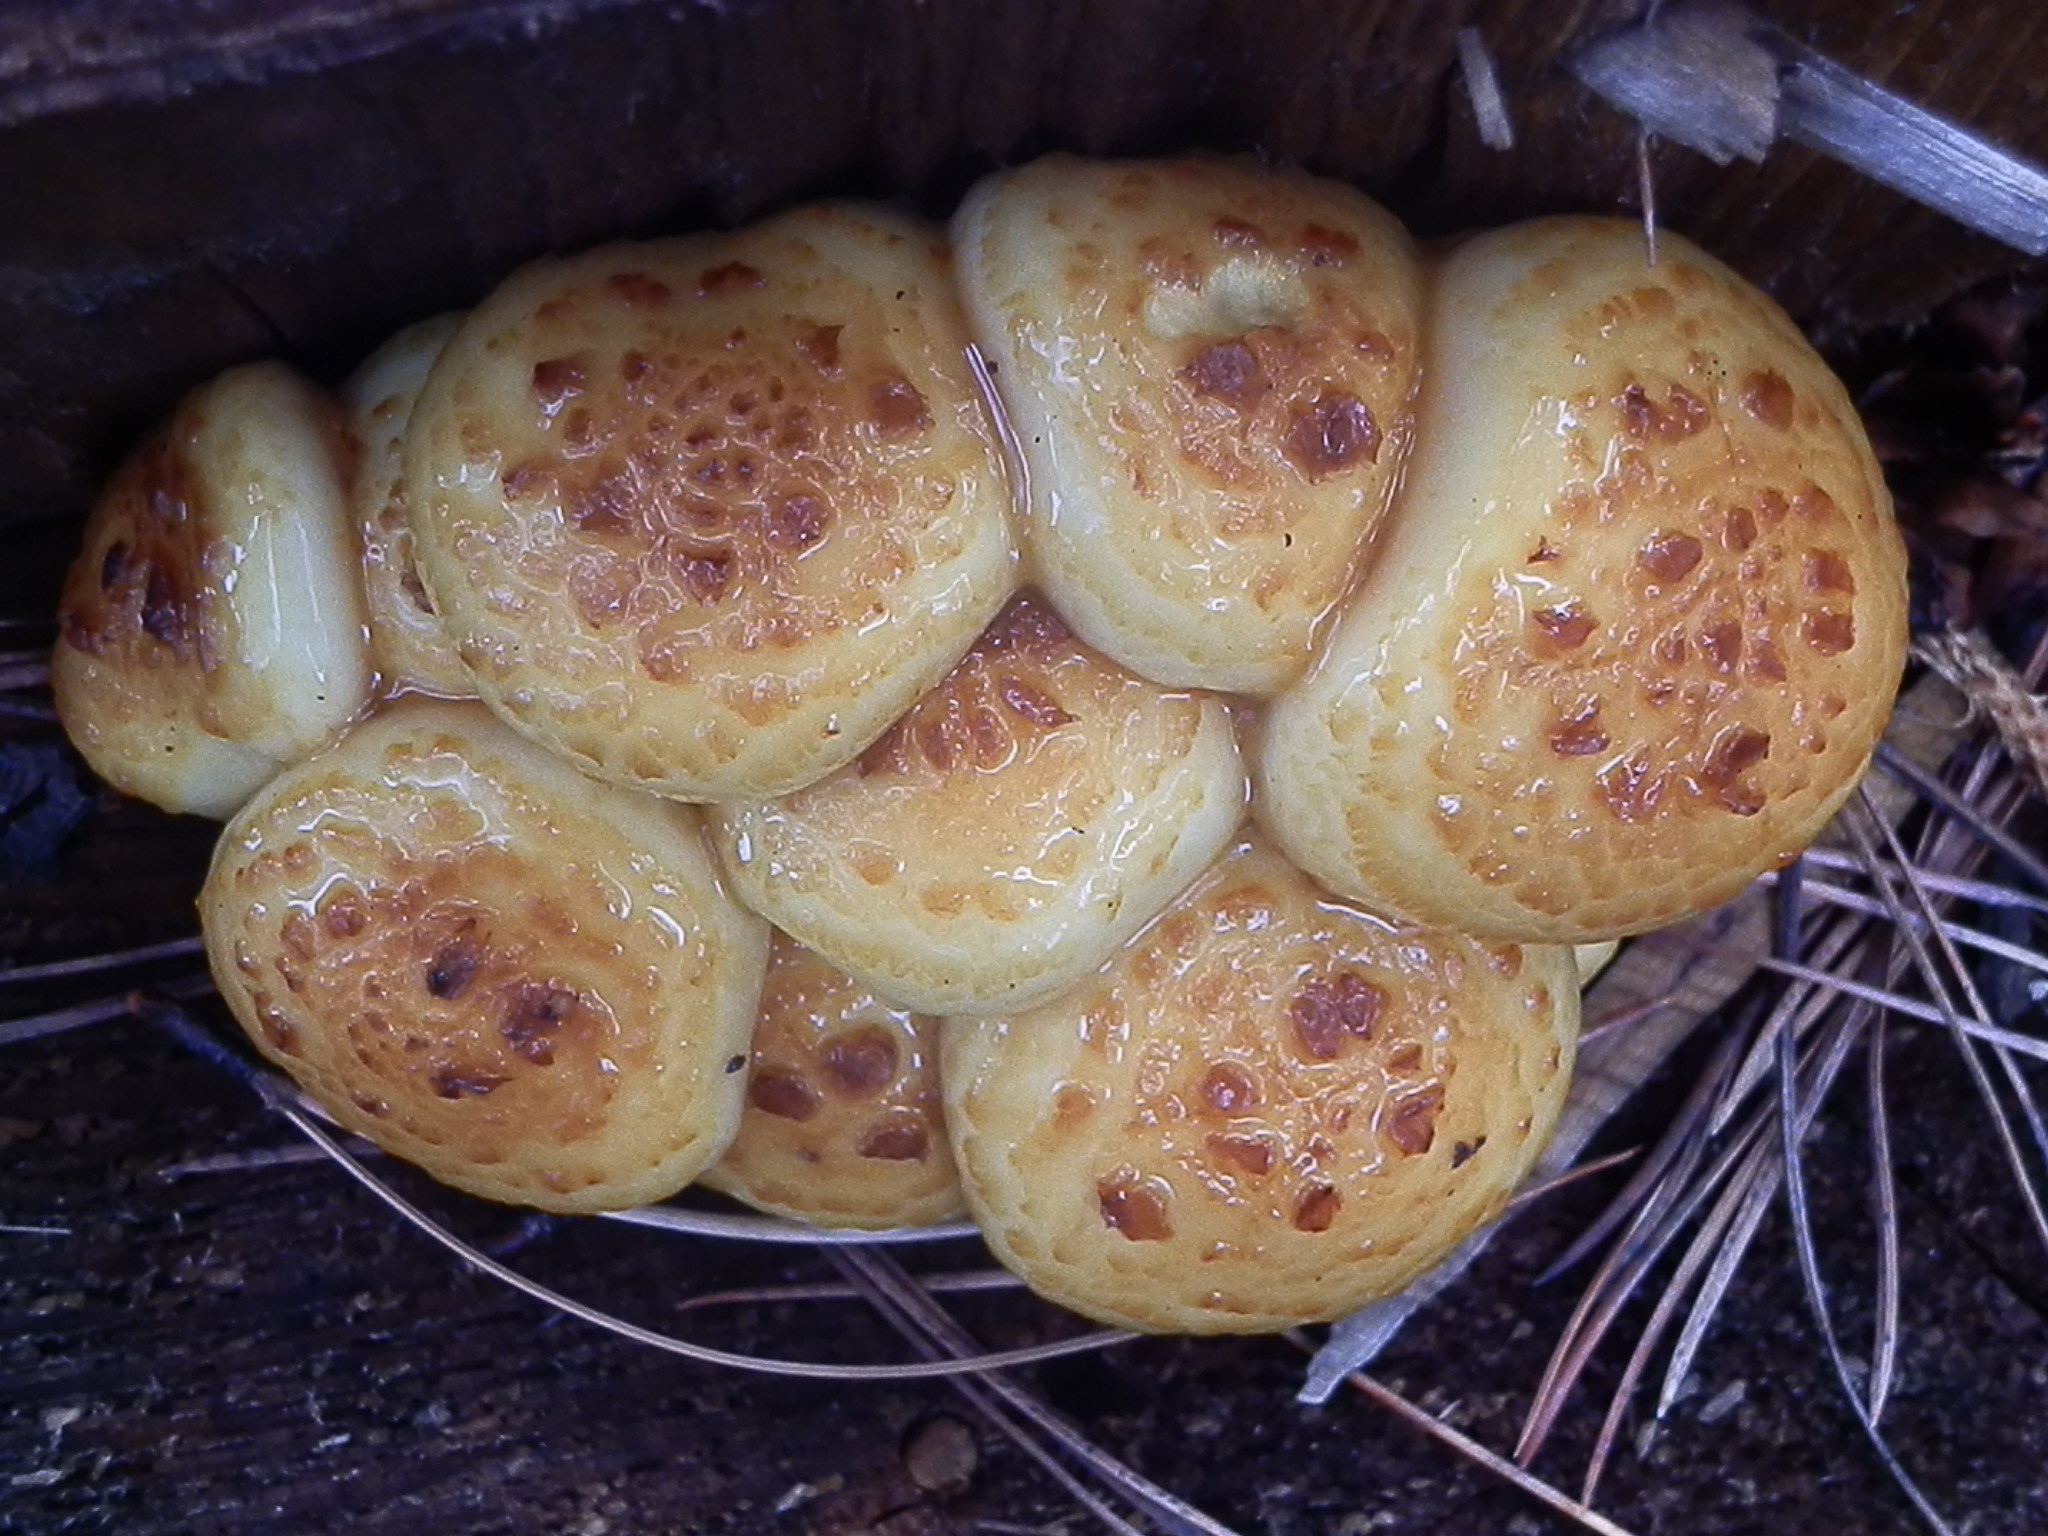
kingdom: Fungi
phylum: Basidiomycota
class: Agaricomycetes
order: Agaricales
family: Strophariaceae
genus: Pholiota
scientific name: Pholiota adiposa
